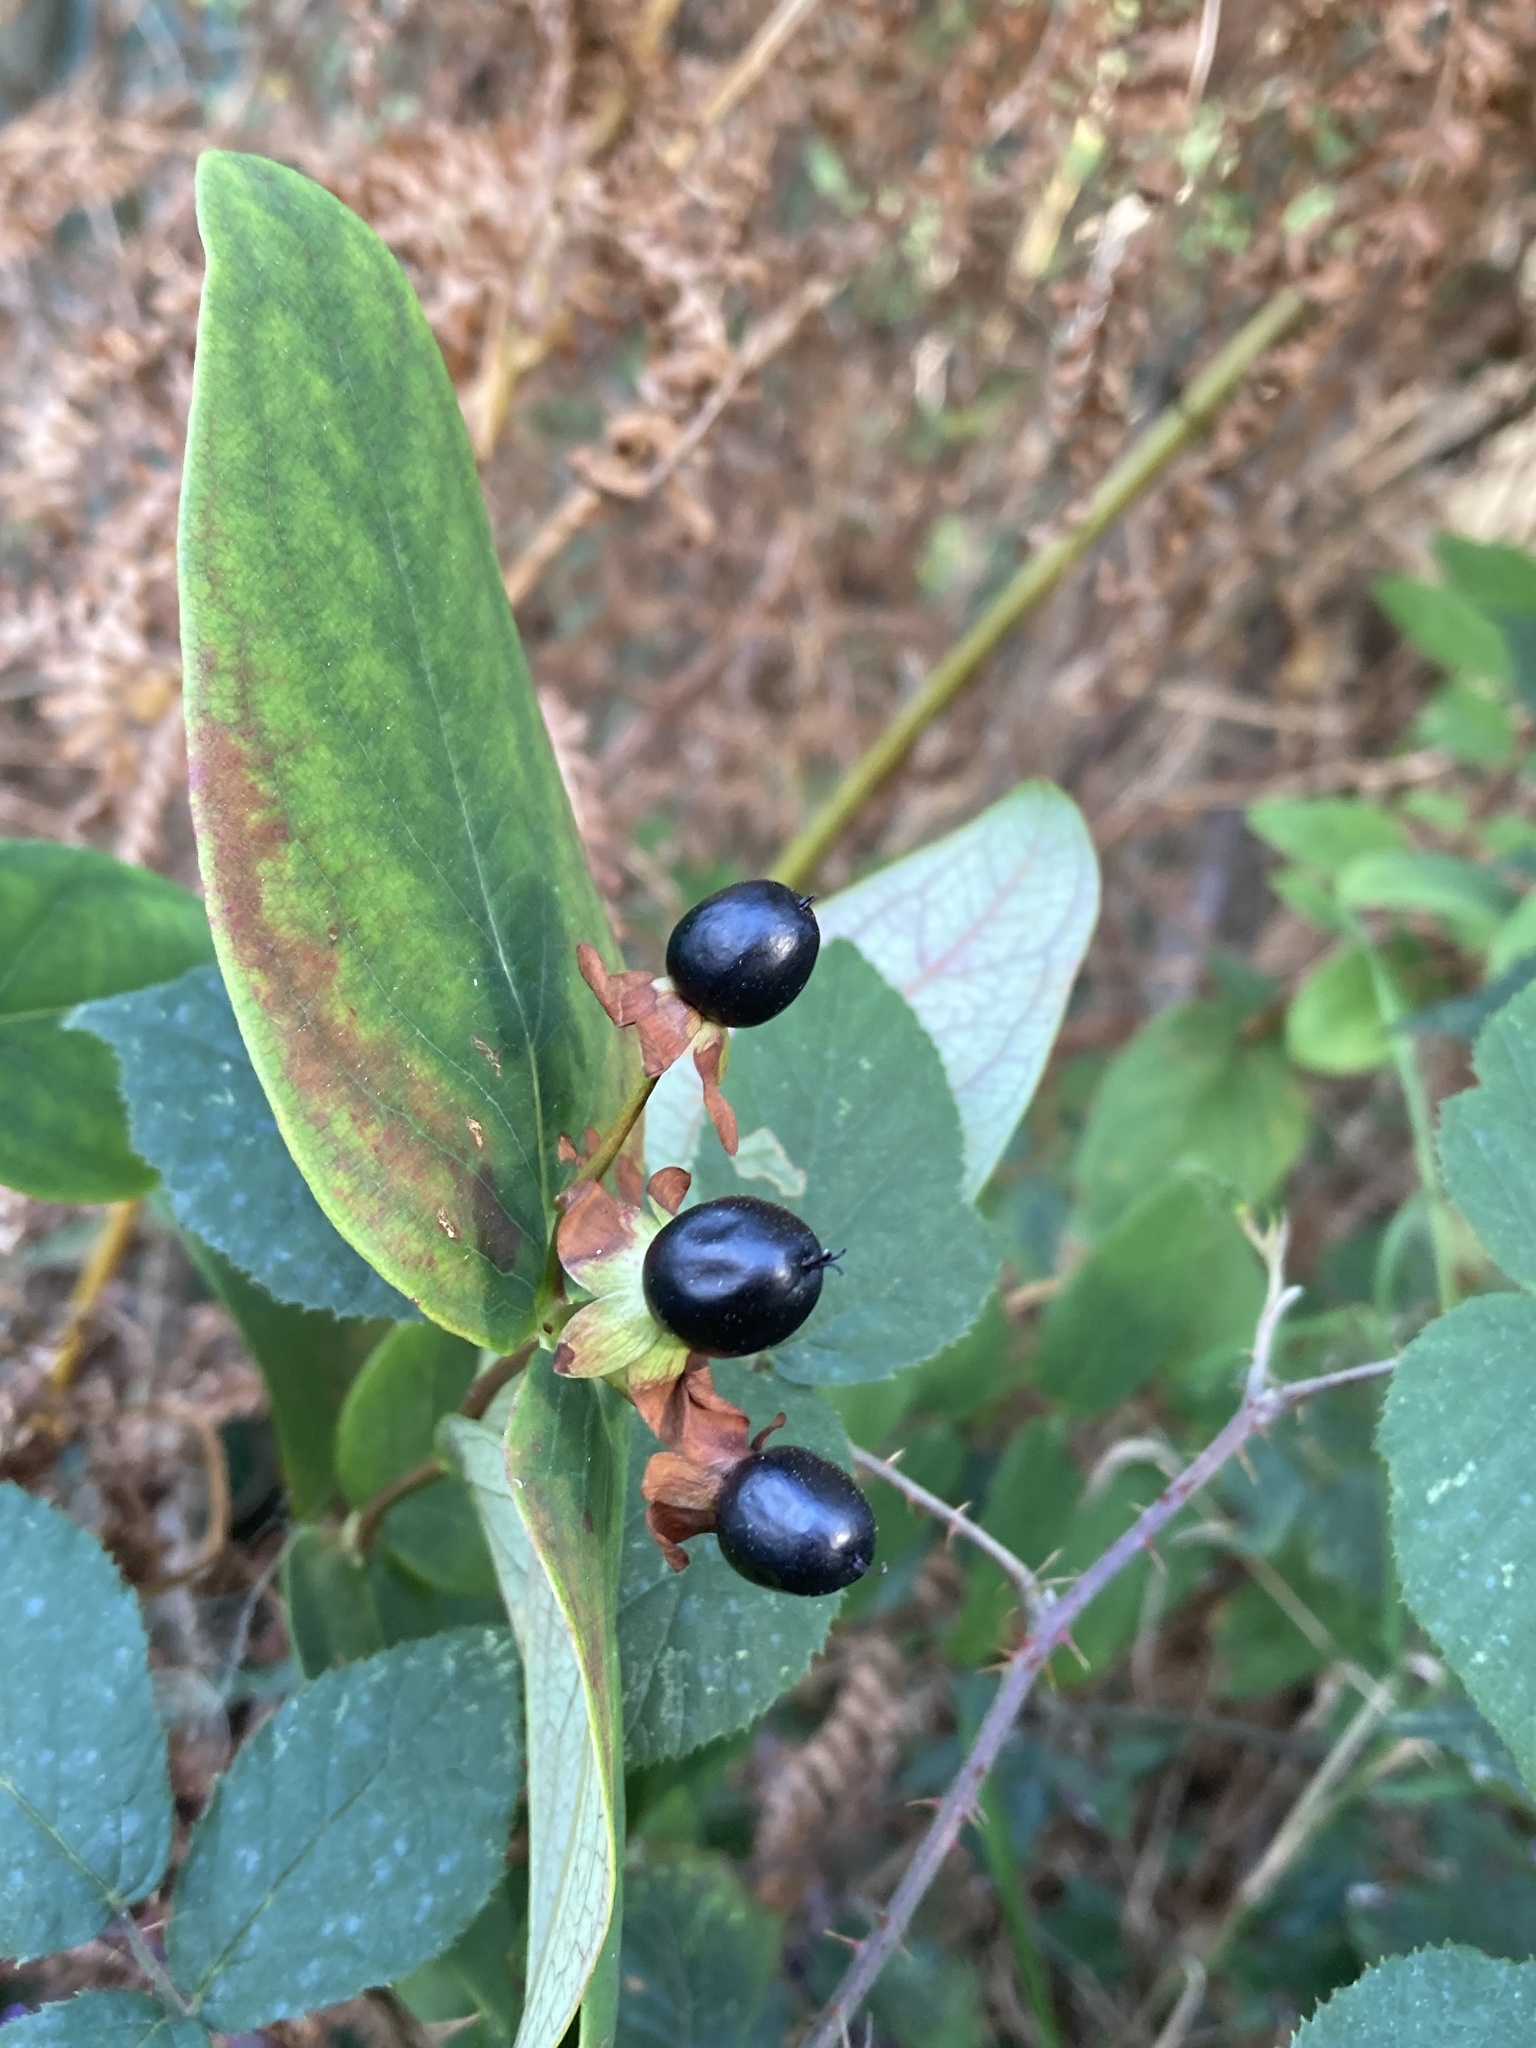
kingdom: Plantae
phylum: Tracheophyta
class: Magnoliopsida
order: Malpighiales
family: Hypericaceae
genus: Hypericum
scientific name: Hypericum androsaemum
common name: Sweet-amber
